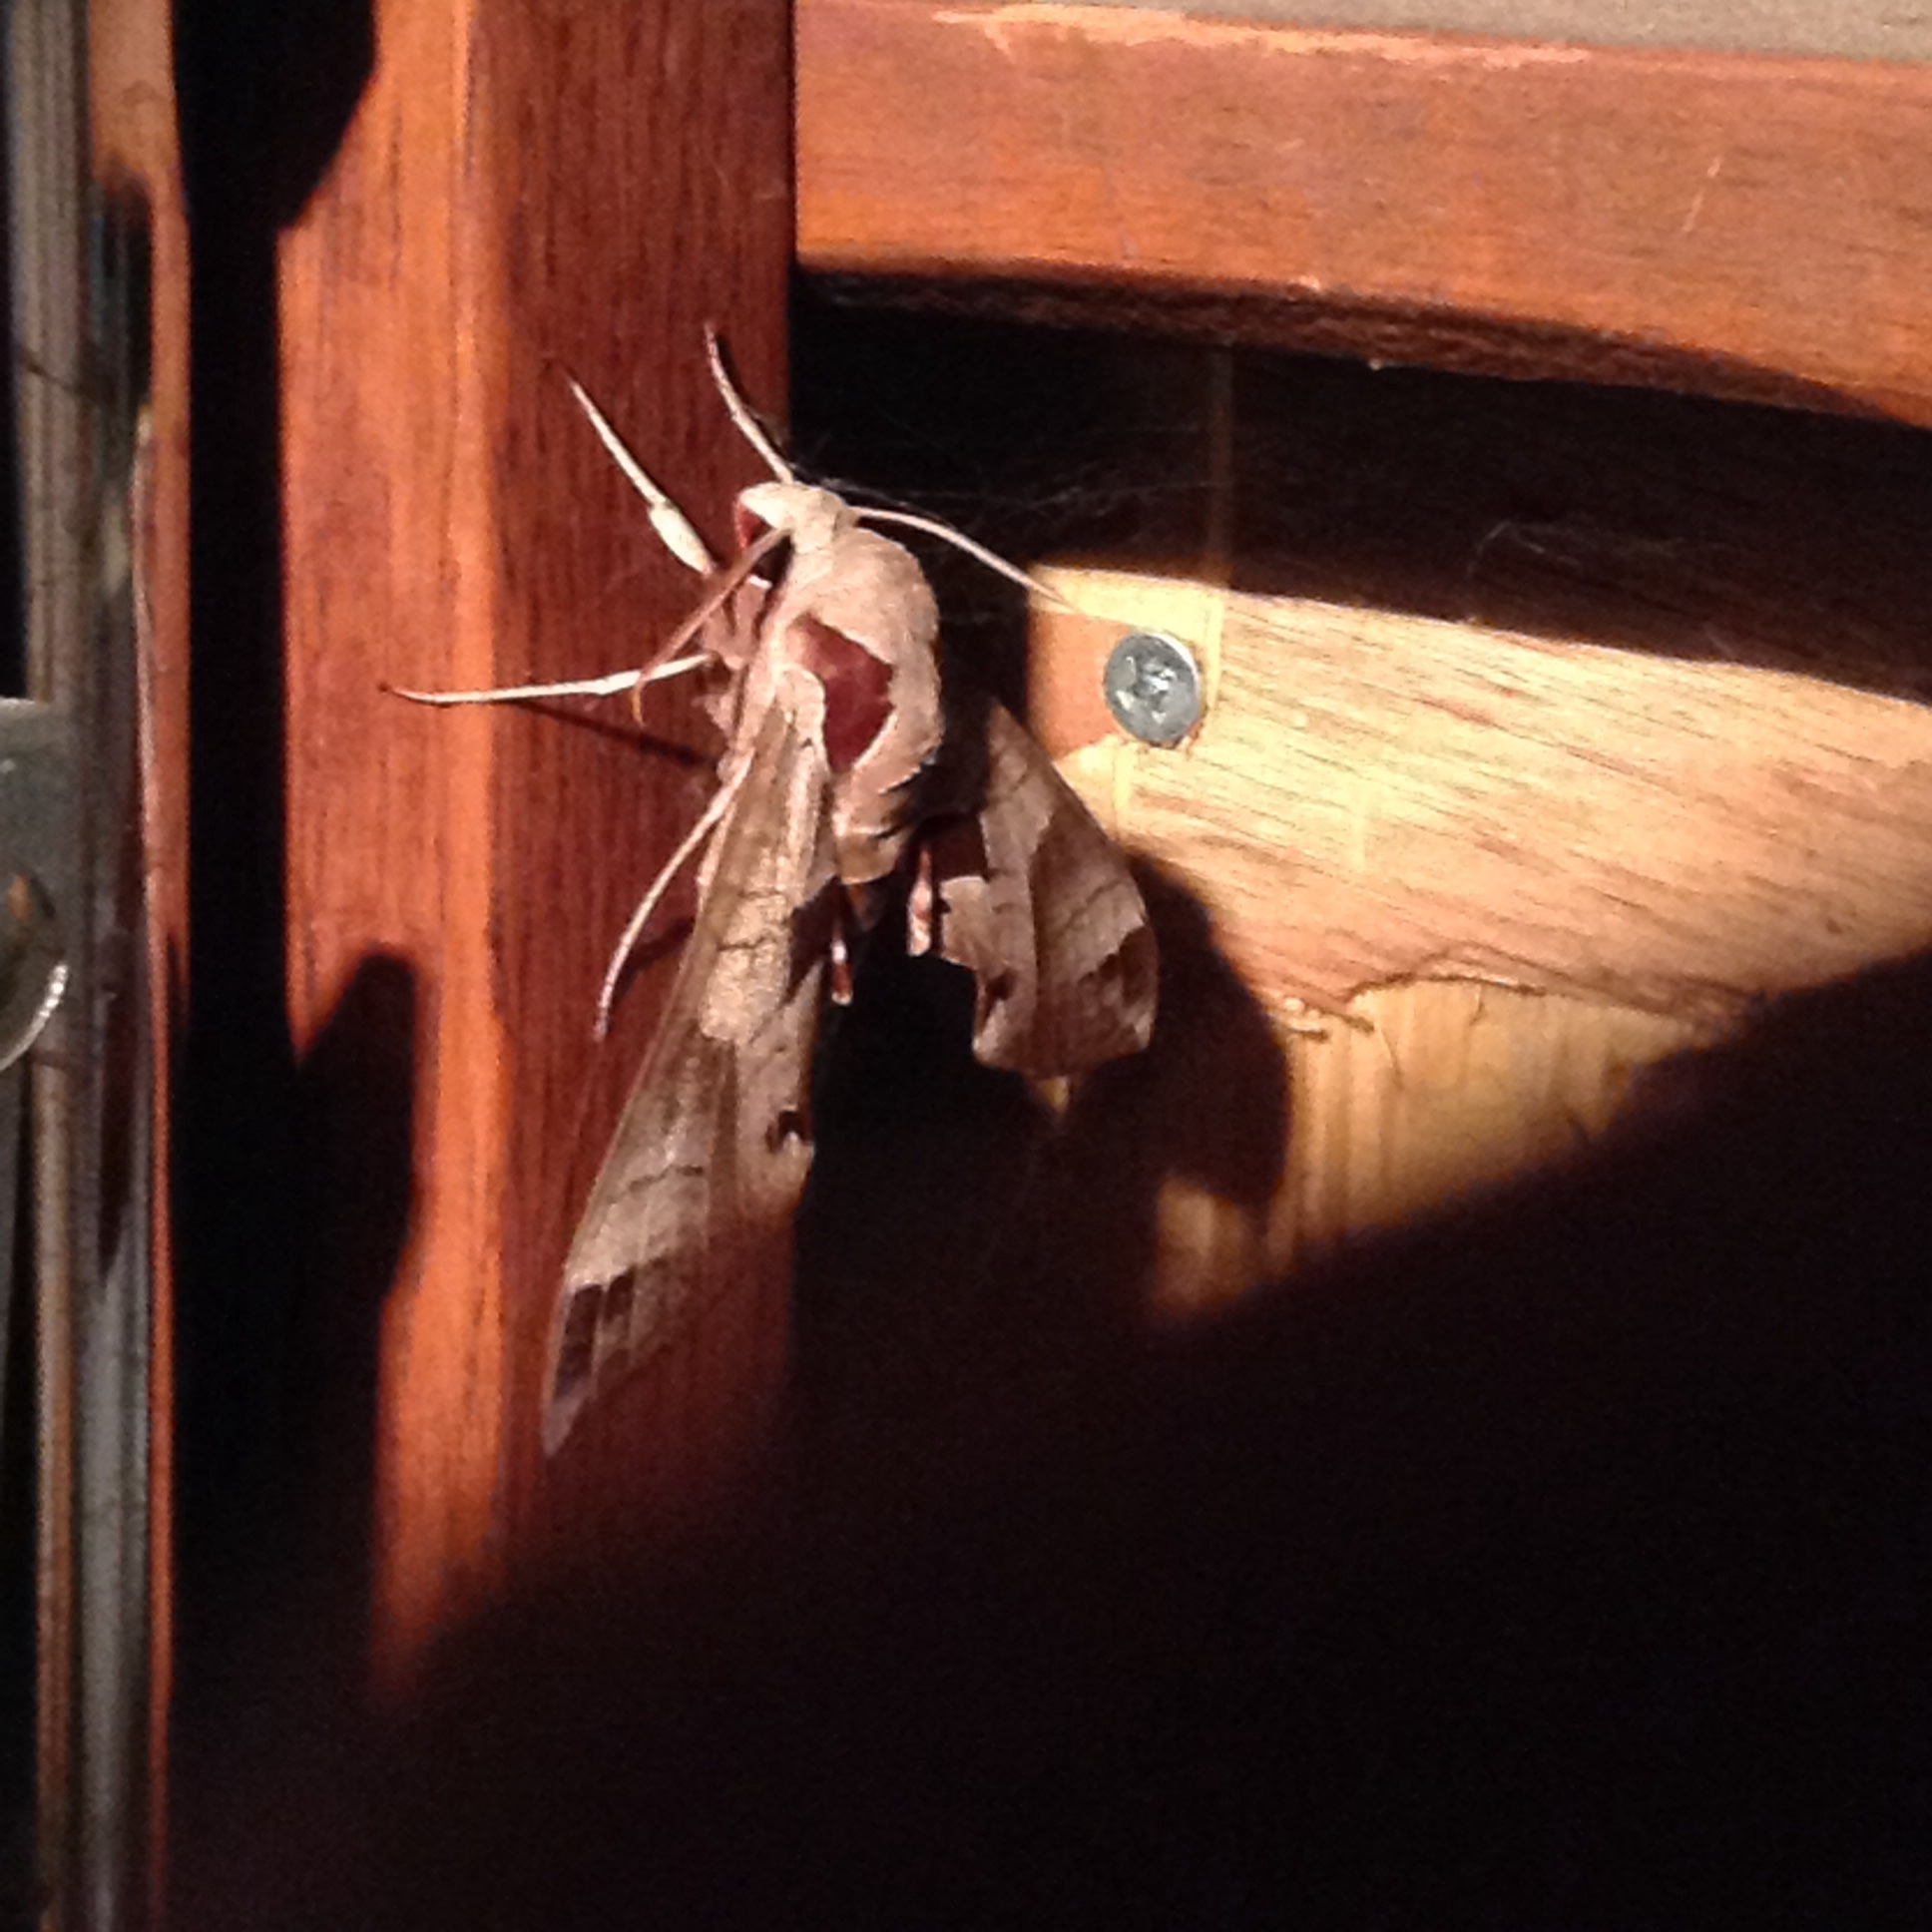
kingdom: Animalia
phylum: Arthropoda
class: Insecta
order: Lepidoptera
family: Sphingidae
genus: Eumorpha
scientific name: Eumorpha achemon
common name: Achemon sphinx
